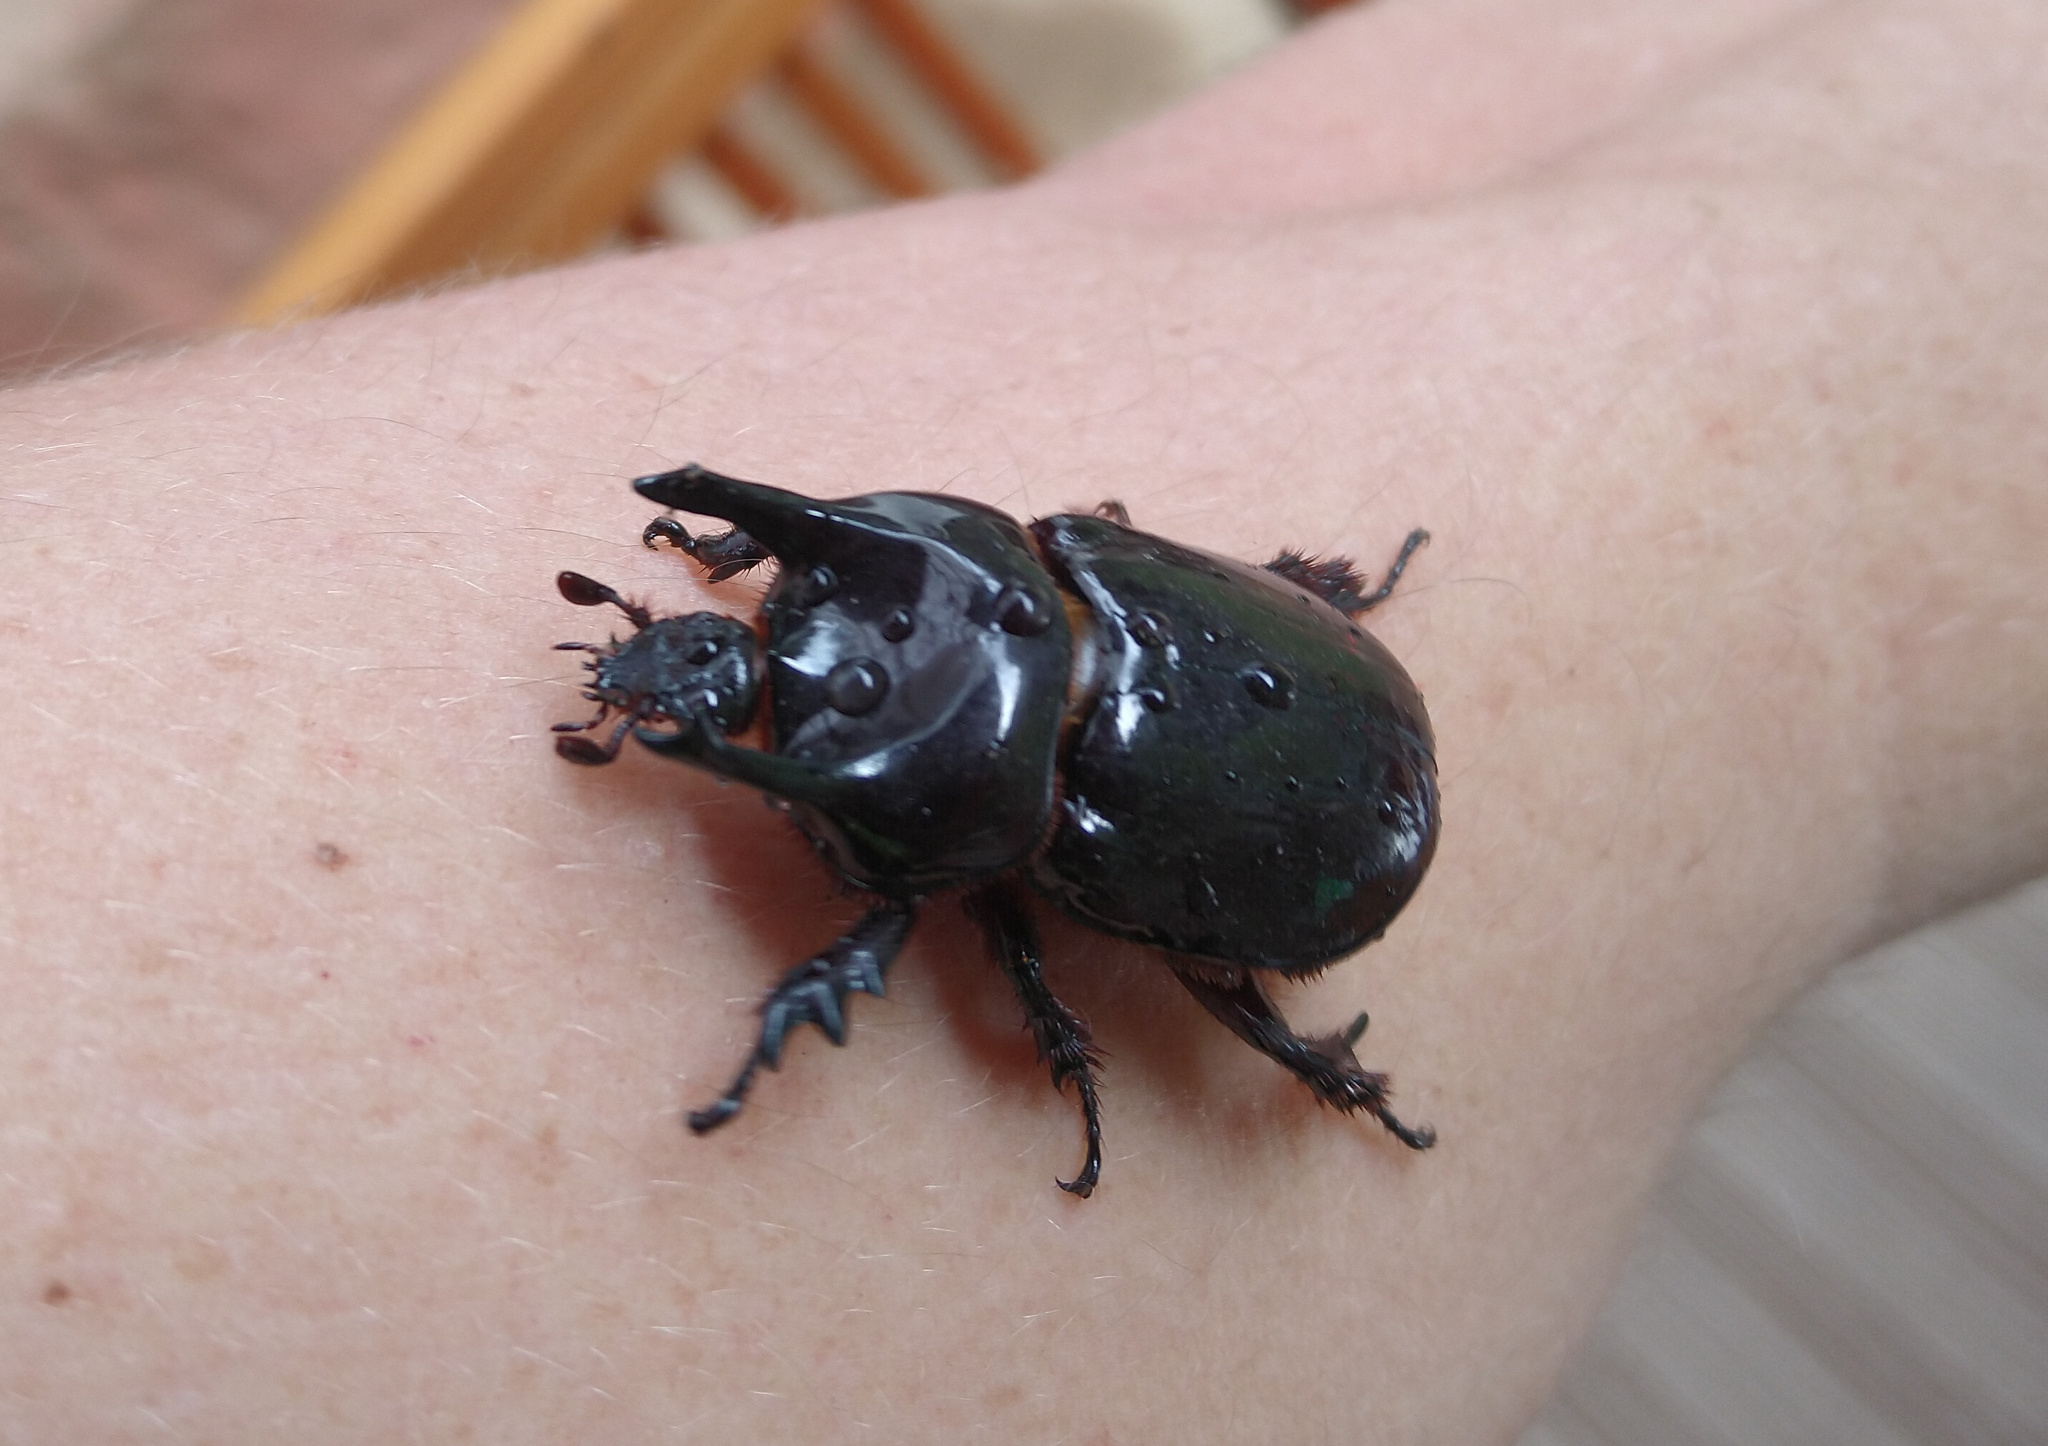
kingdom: Animalia
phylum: Arthropoda
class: Insecta
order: Coleoptera
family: Scarabaeidae
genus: Bothynus
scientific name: Bothynus entellus
